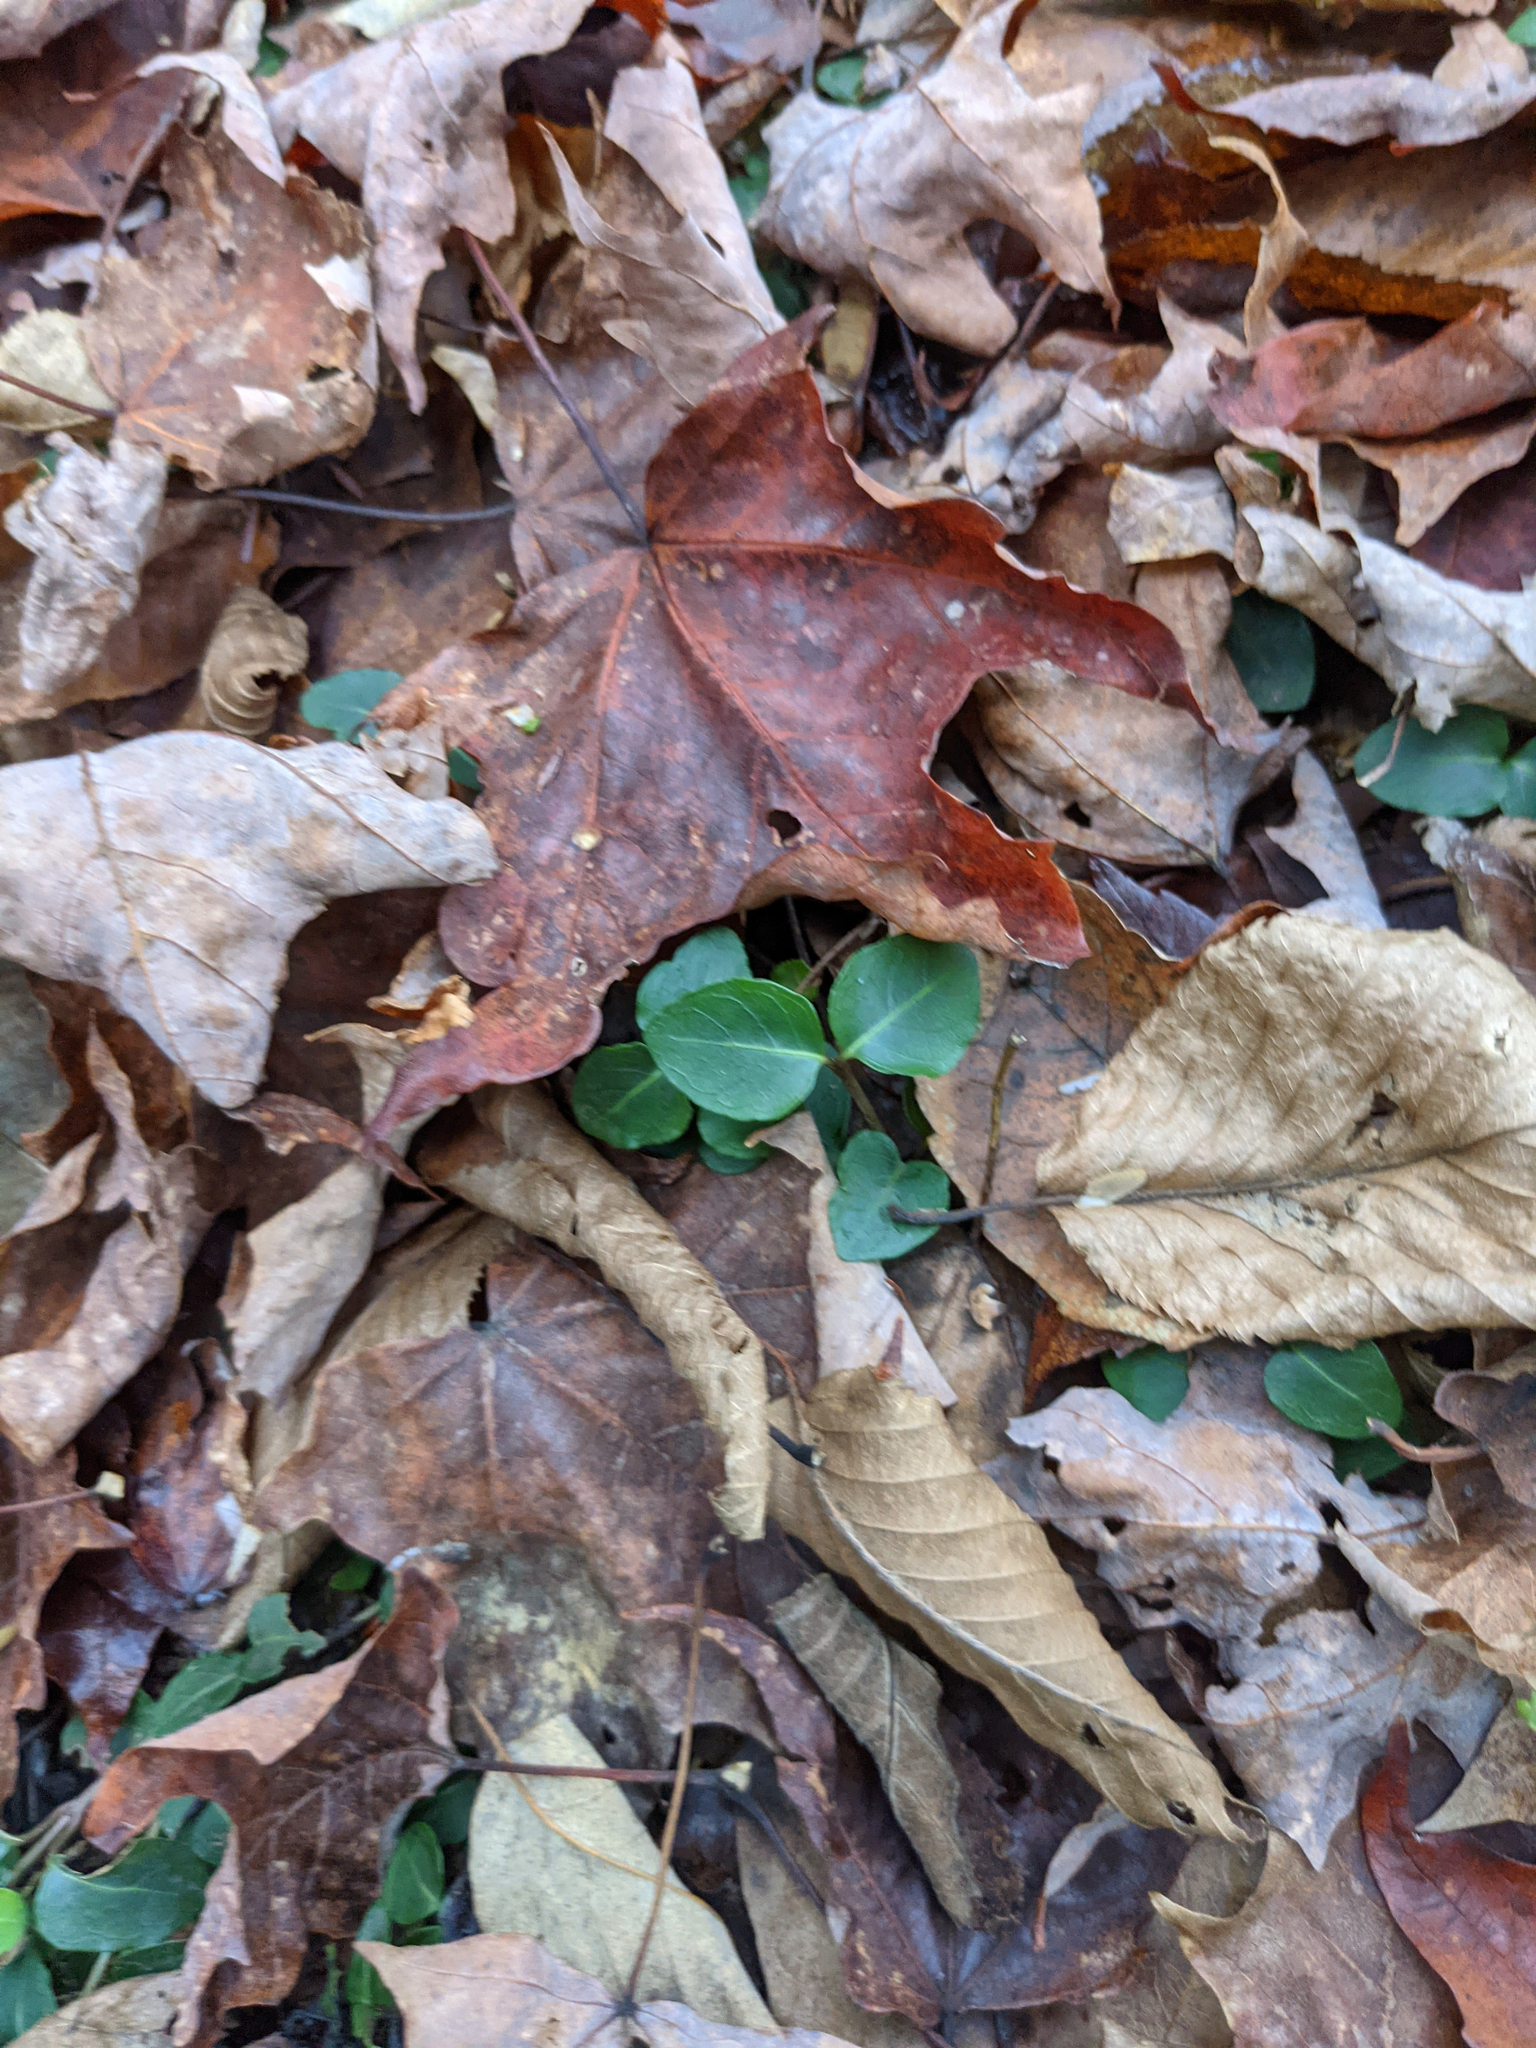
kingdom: Plantae
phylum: Tracheophyta
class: Magnoliopsida
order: Gentianales
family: Rubiaceae
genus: Mitchella
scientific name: Mitchella repens
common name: Partridge-berry
